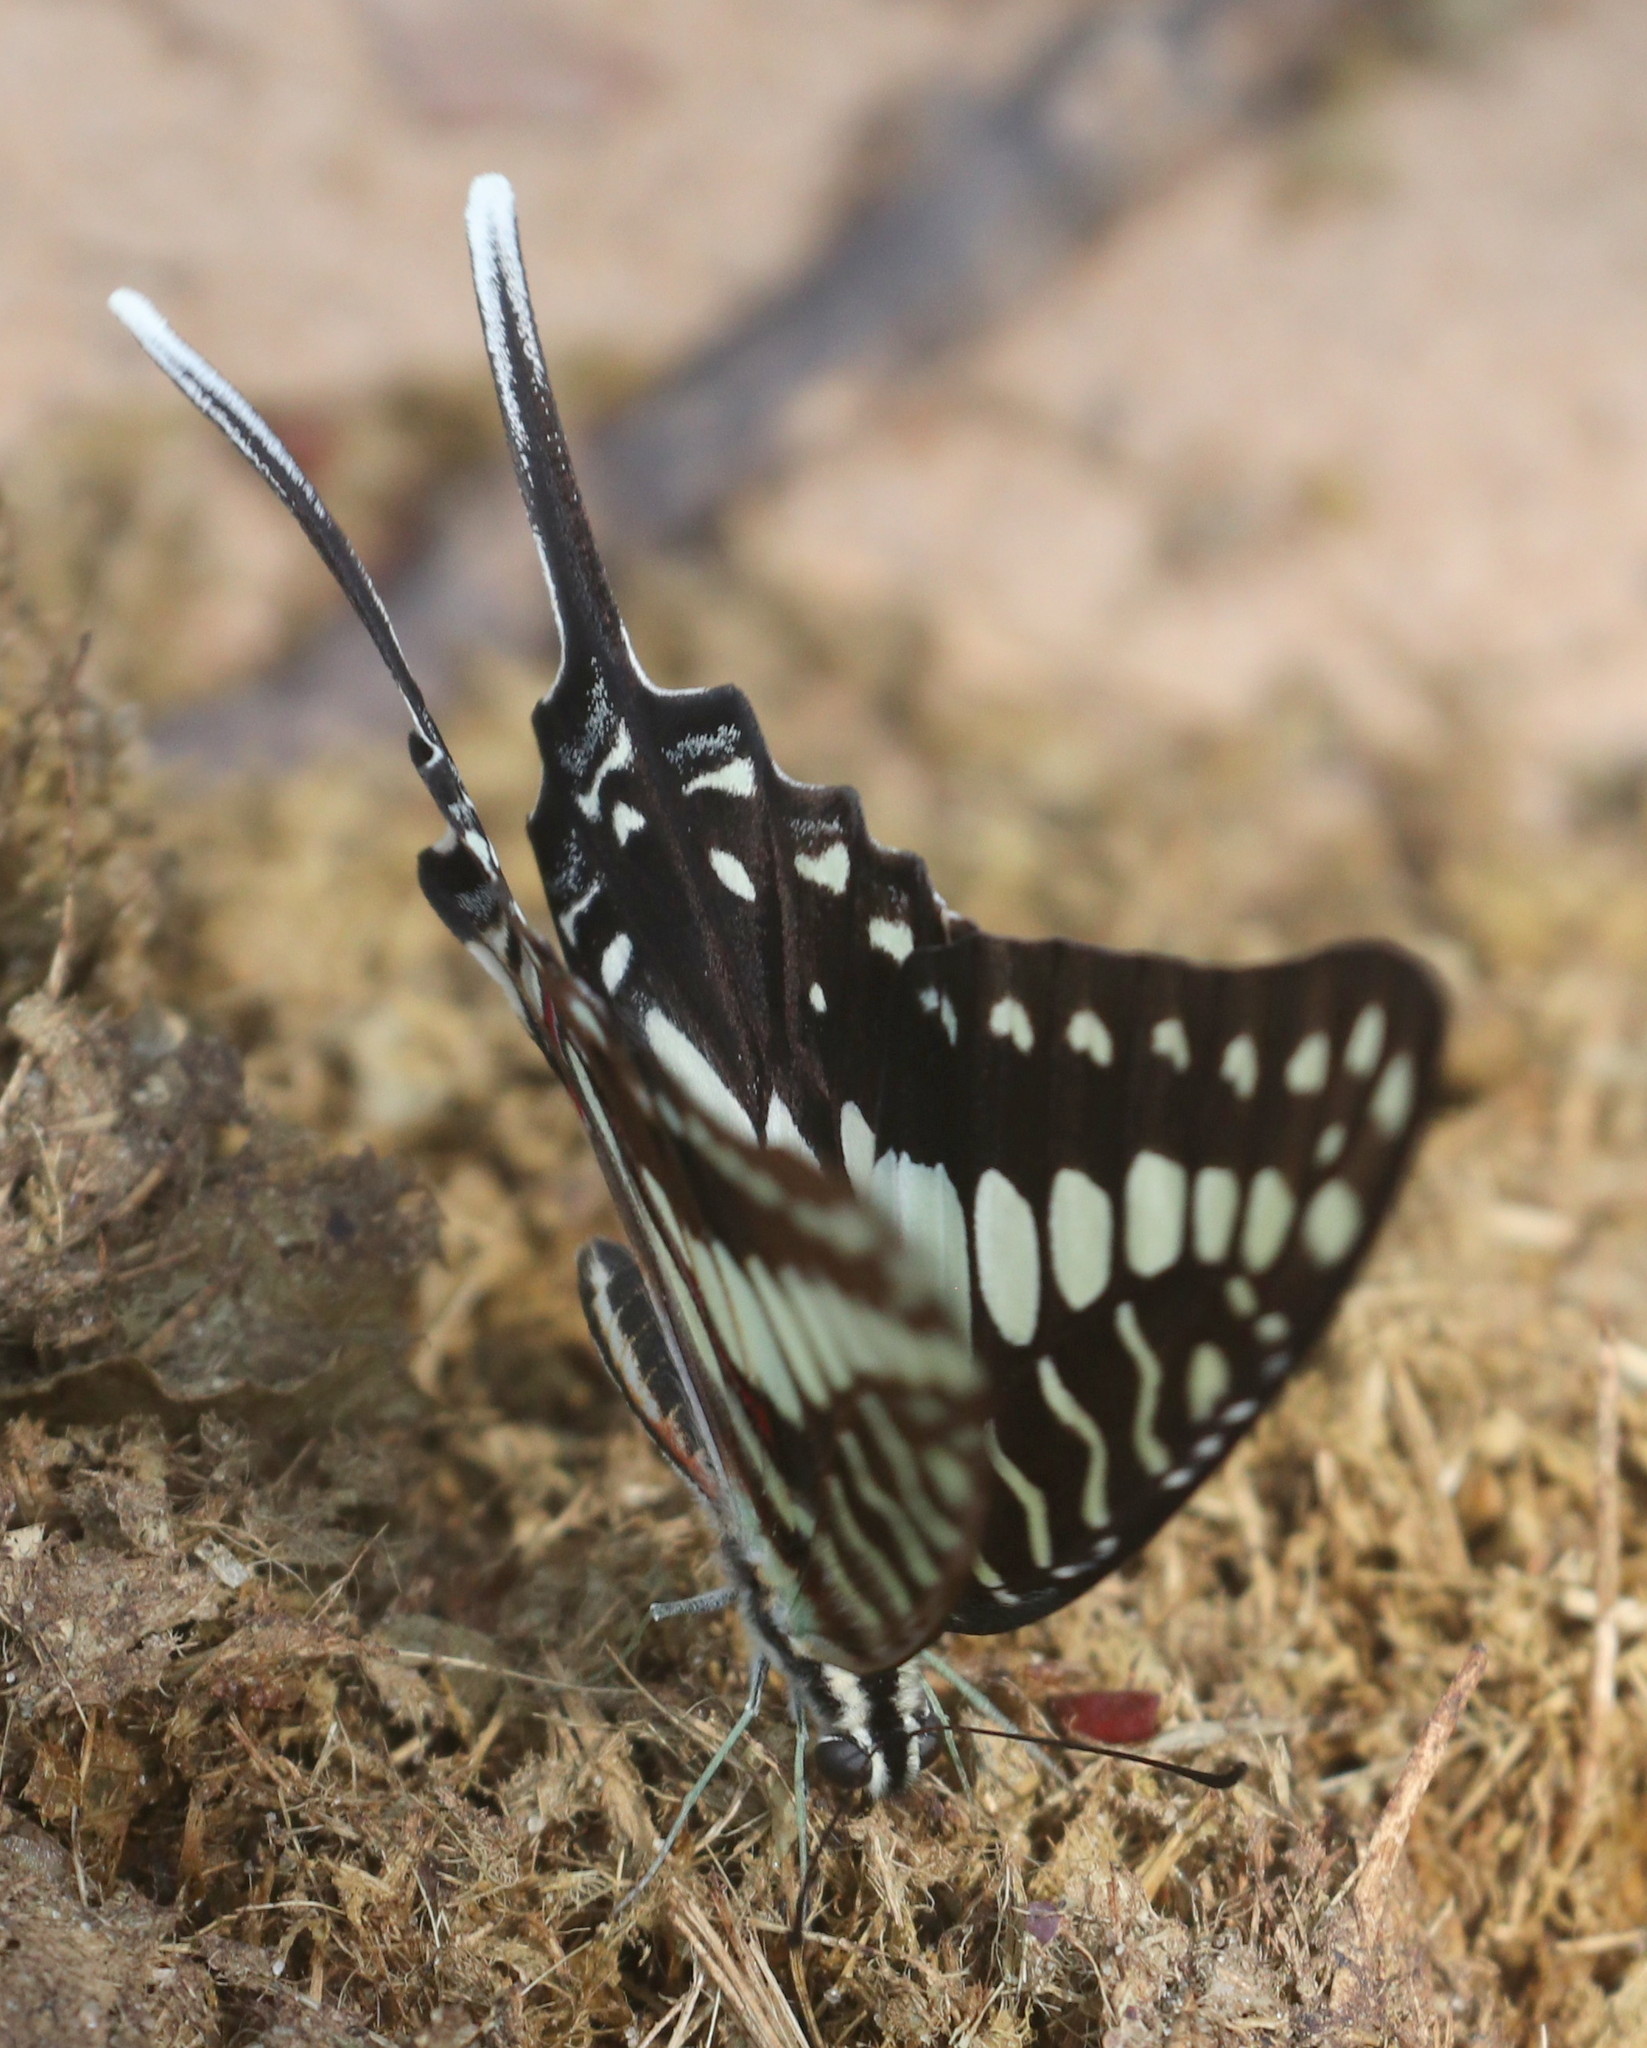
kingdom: Animalia
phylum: Arthropoda
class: Insecta
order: Lepidoptera
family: Papilionidae
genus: Graphium
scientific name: Graphium porthaon
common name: Coastal swordtail
